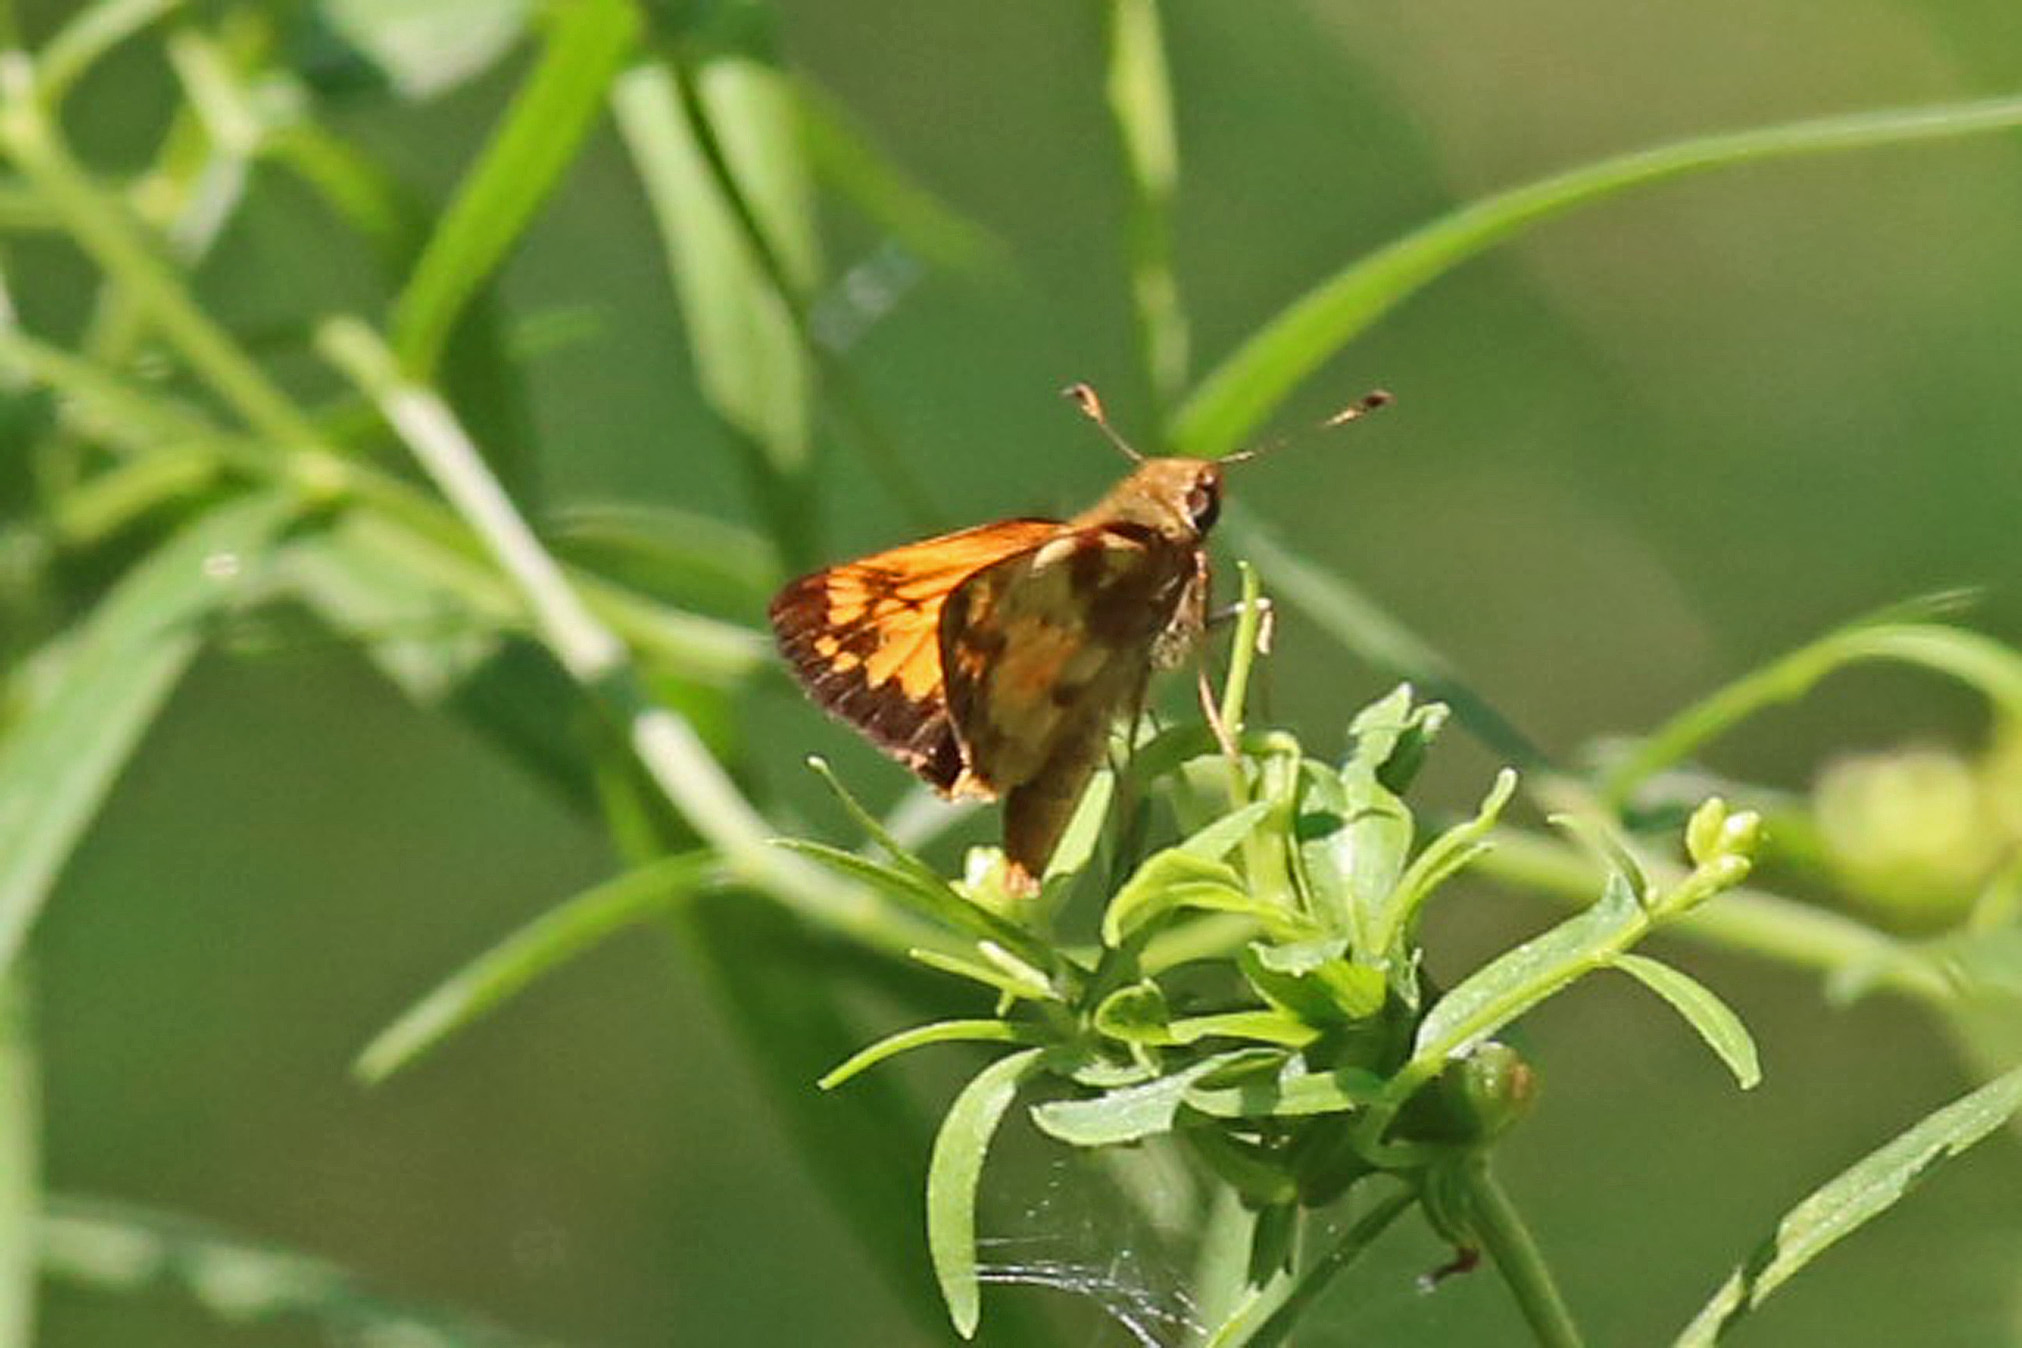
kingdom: Animalia
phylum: Arthropoda
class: Insecta
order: Lepidoptera
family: Hesperiidae
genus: Lon
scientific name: Lon zabulon
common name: Zabulon skipper
